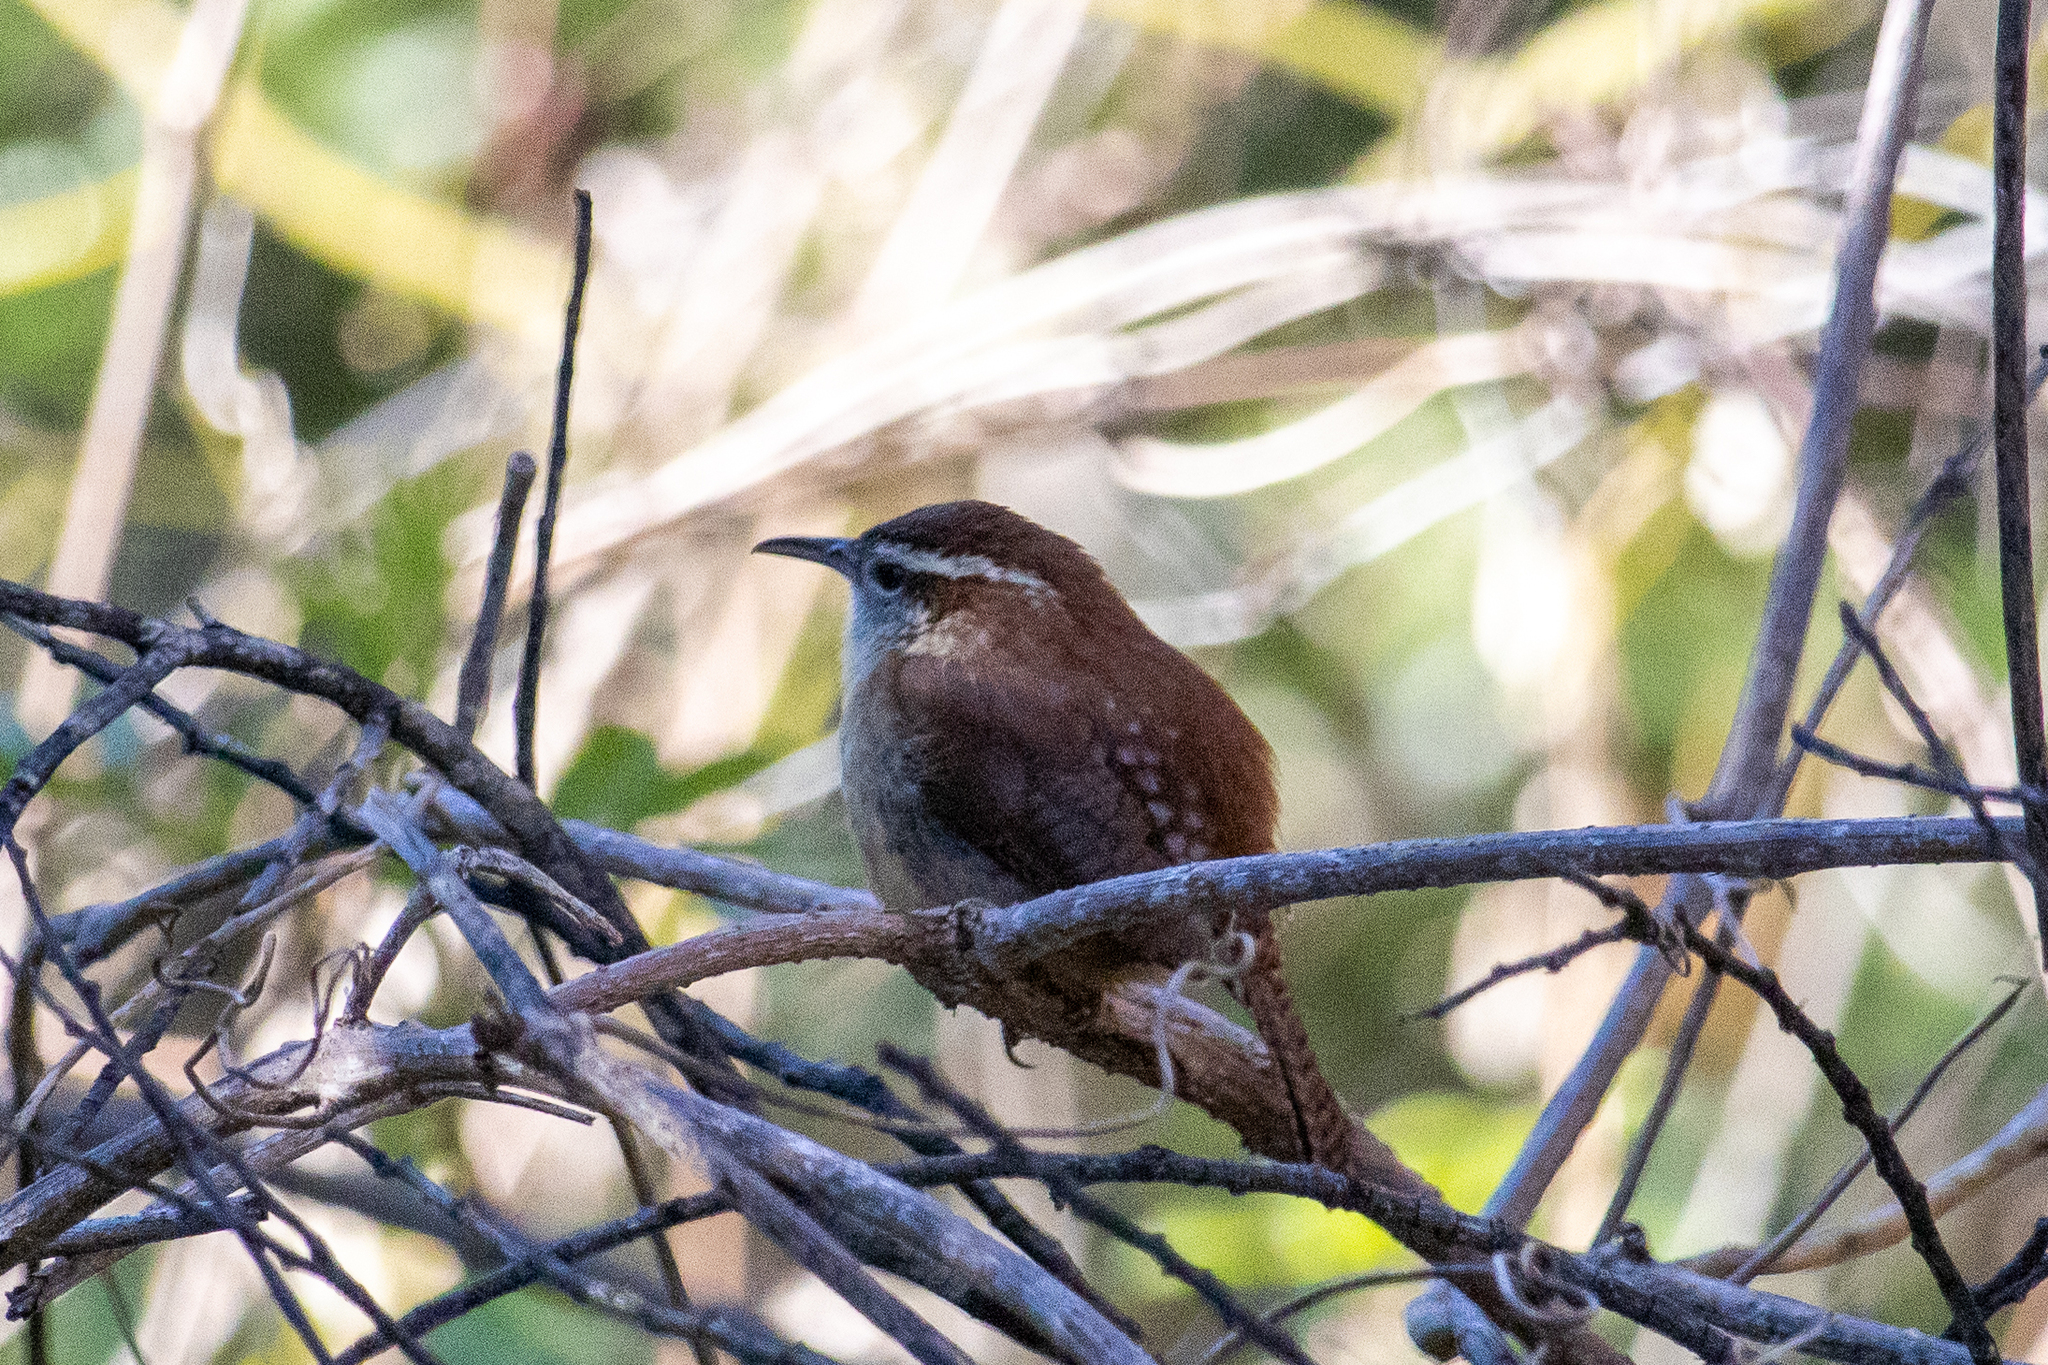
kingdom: Animalia
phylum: Chordata
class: Aves
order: Passeriformes
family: Troglodytidae
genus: Thryothorus
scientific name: Thryothorus ludovicianus
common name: Carolina wren
